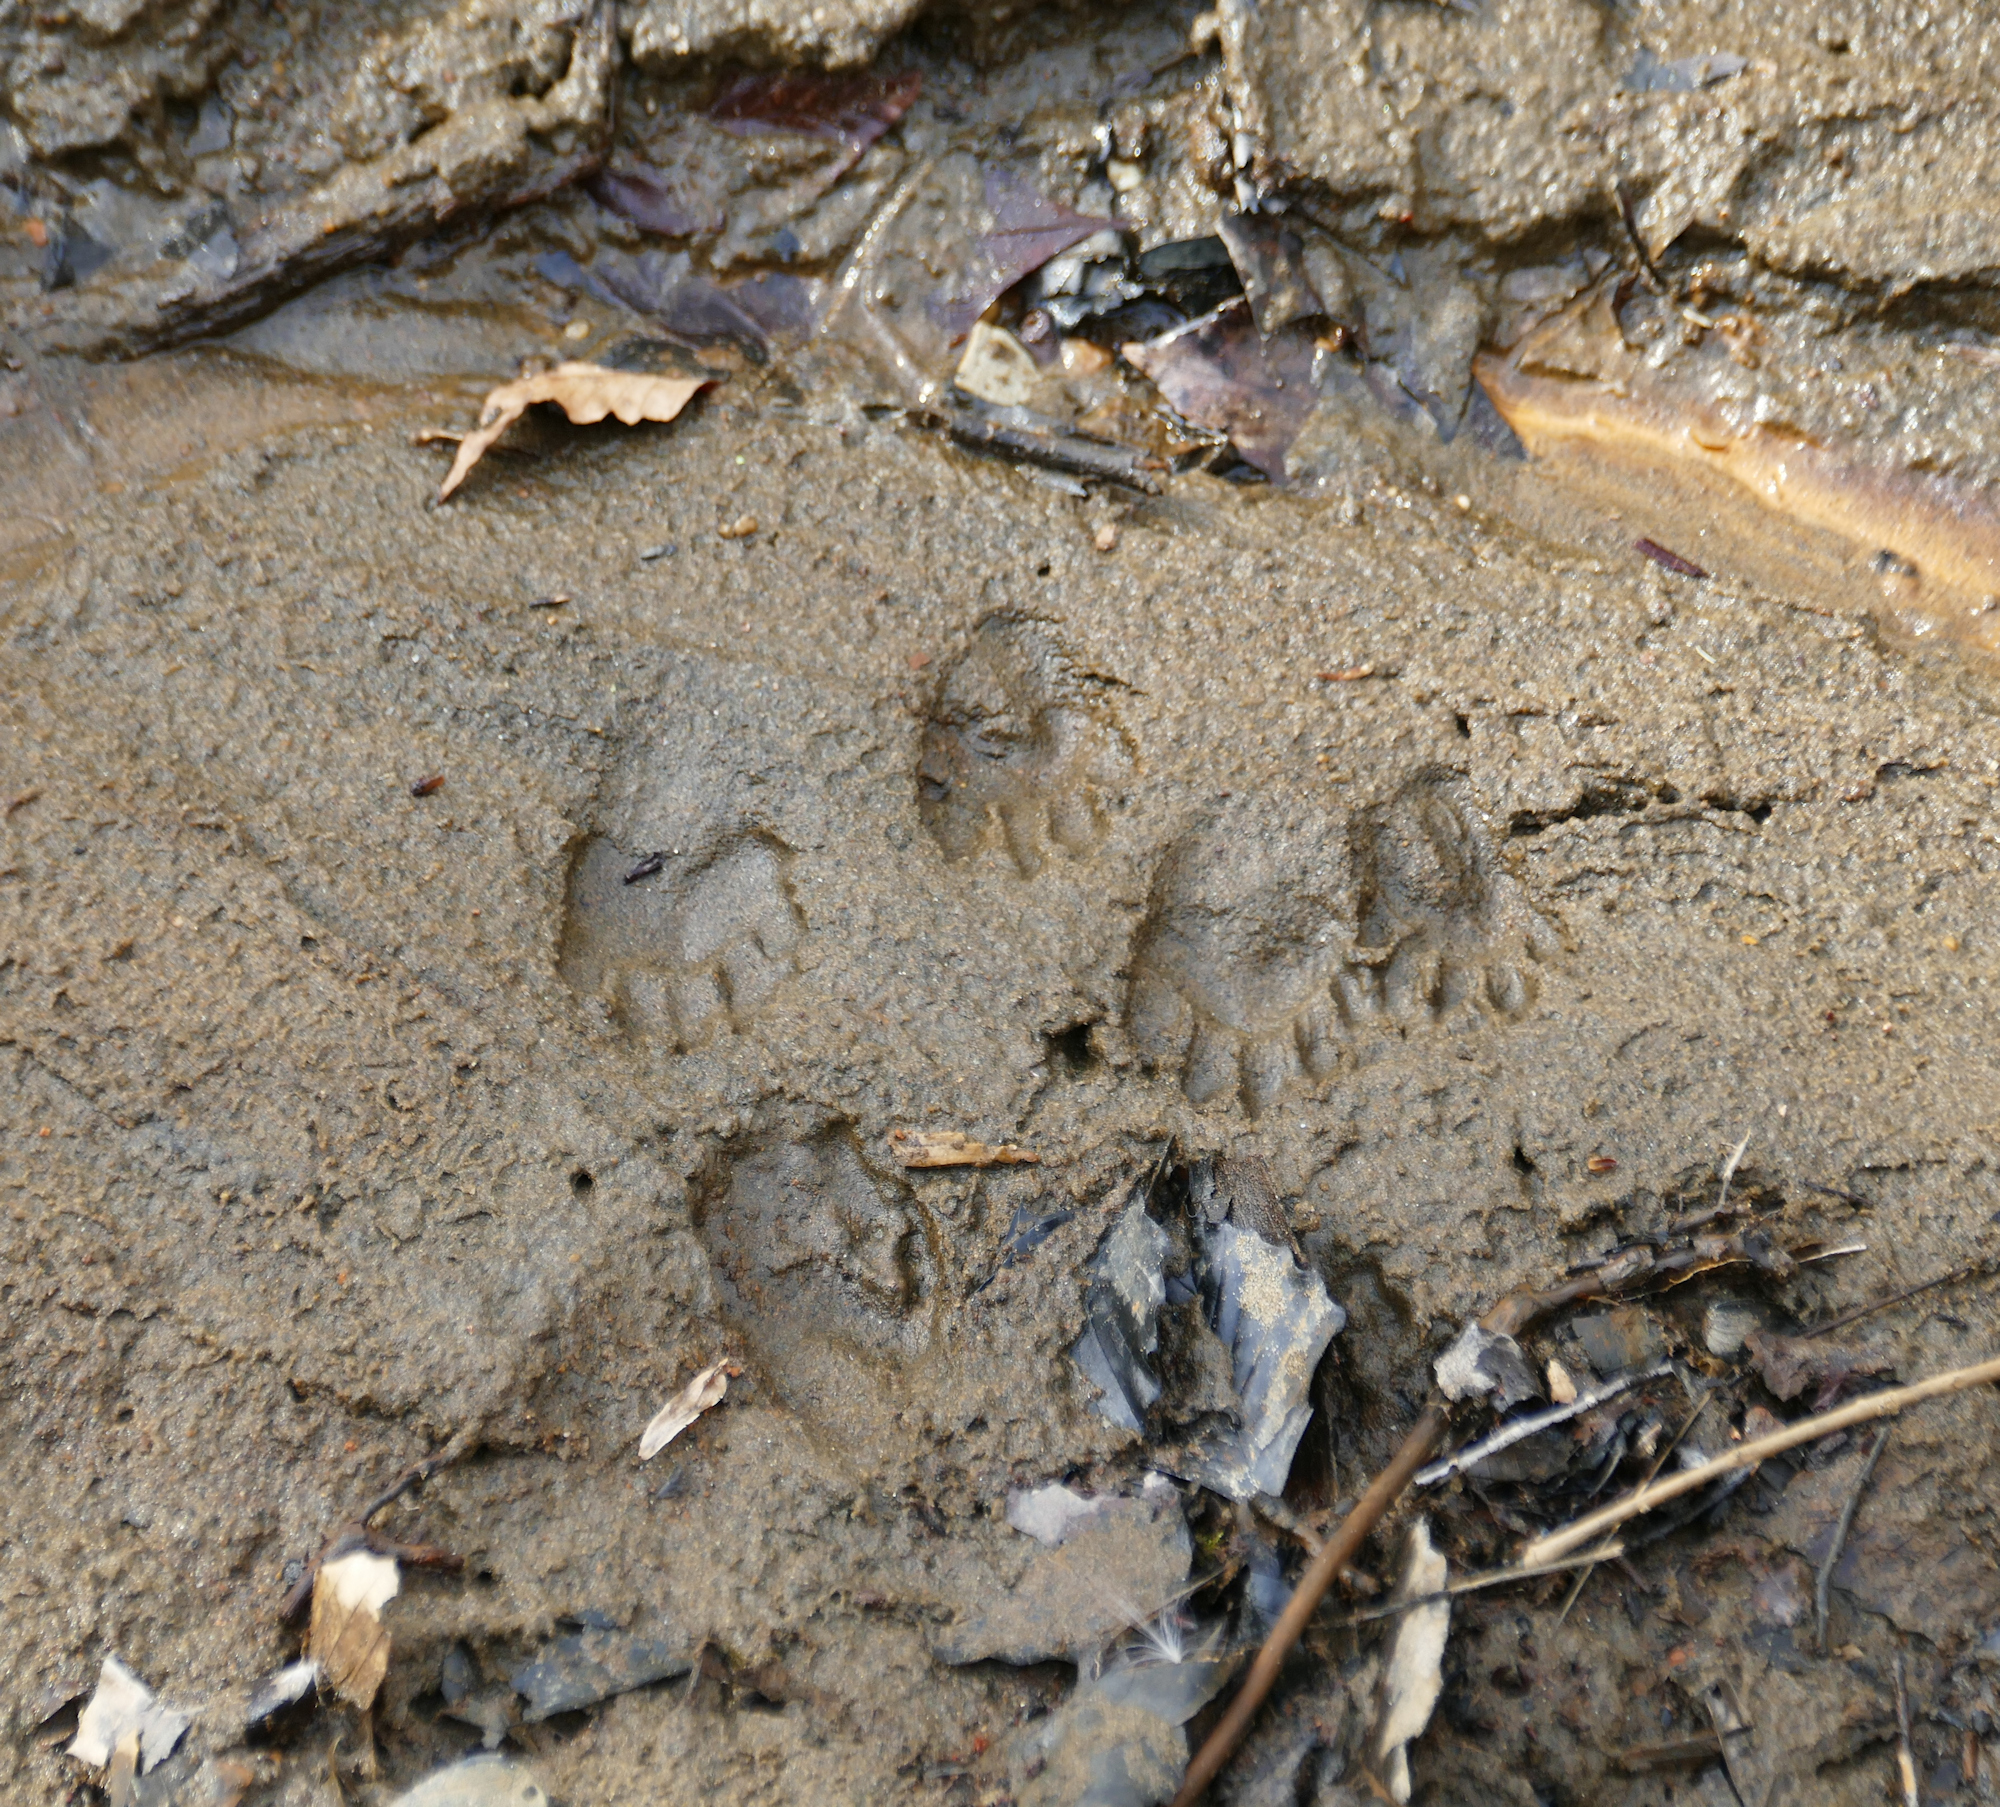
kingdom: Animalia
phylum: Chordata
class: Mammalia
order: Carnivora
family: Procyonidae
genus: Procyon
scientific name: Procyon lotor
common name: Raccoon
